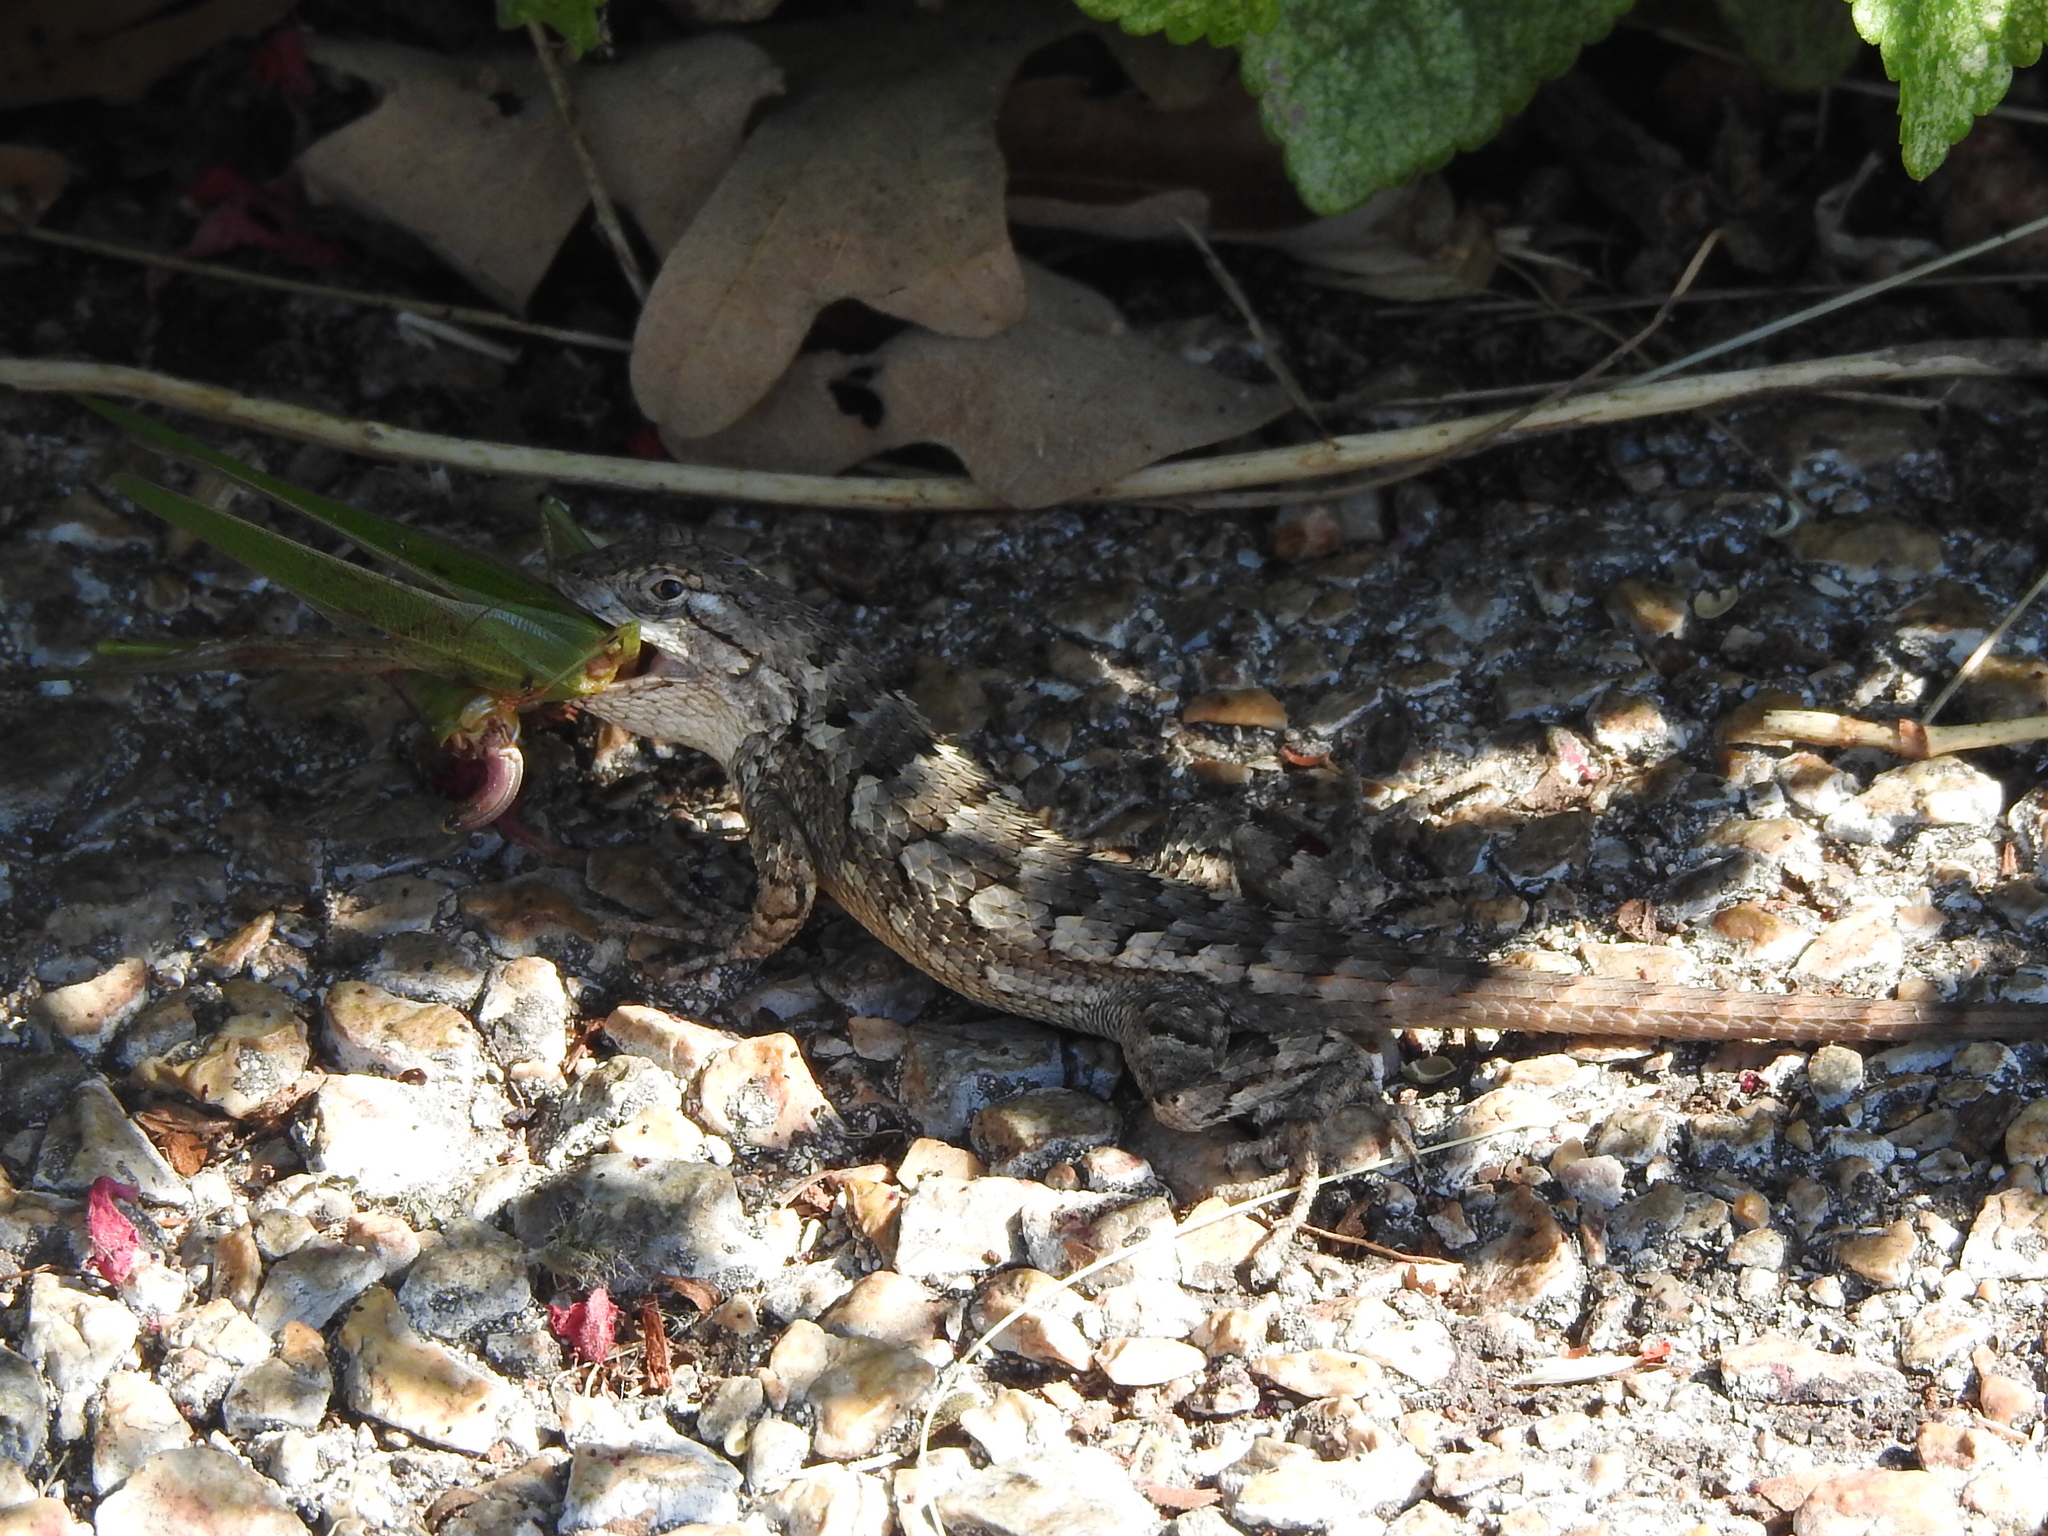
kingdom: Animalia
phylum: Chordata
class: Squamata
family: Phrynosomatidae
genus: Sceloporus
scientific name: Sceloporus olivaceus
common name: Texas spiny lizard
